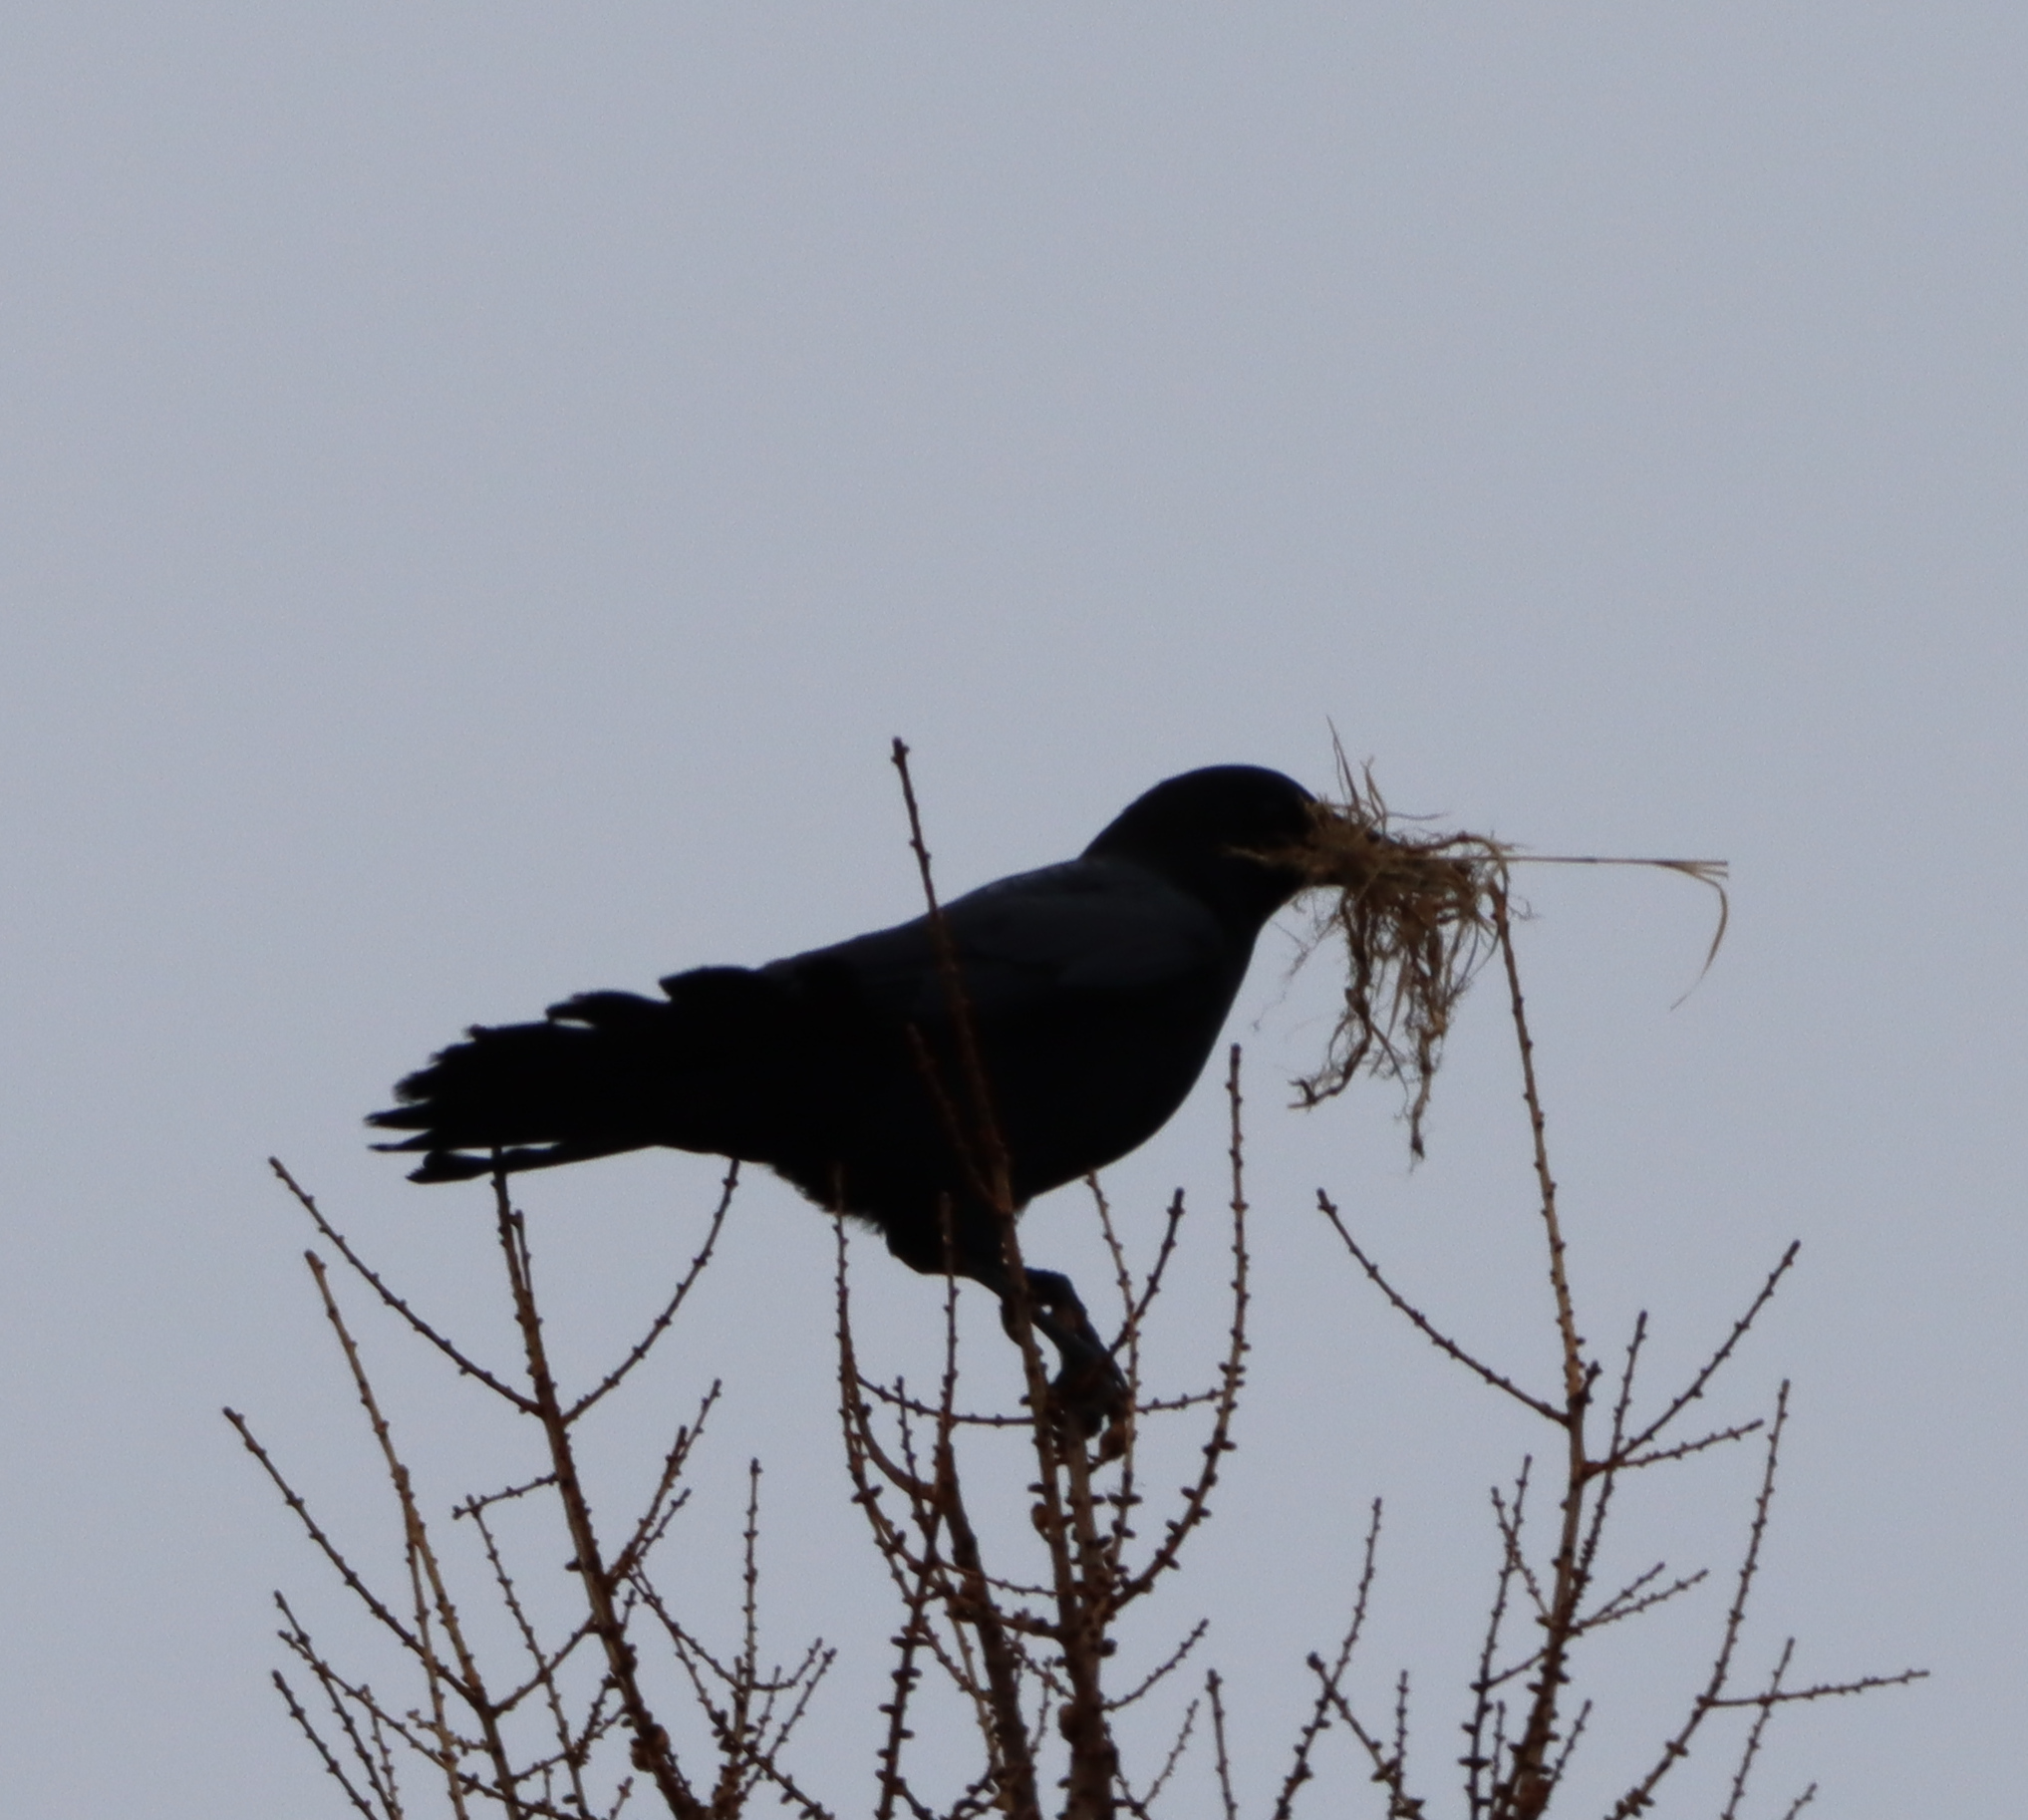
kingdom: Animalia
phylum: Chordata
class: Aves
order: Passeriformes
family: Corvidae
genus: Corvus
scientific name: Corvus brachyrhynchos
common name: American crow
